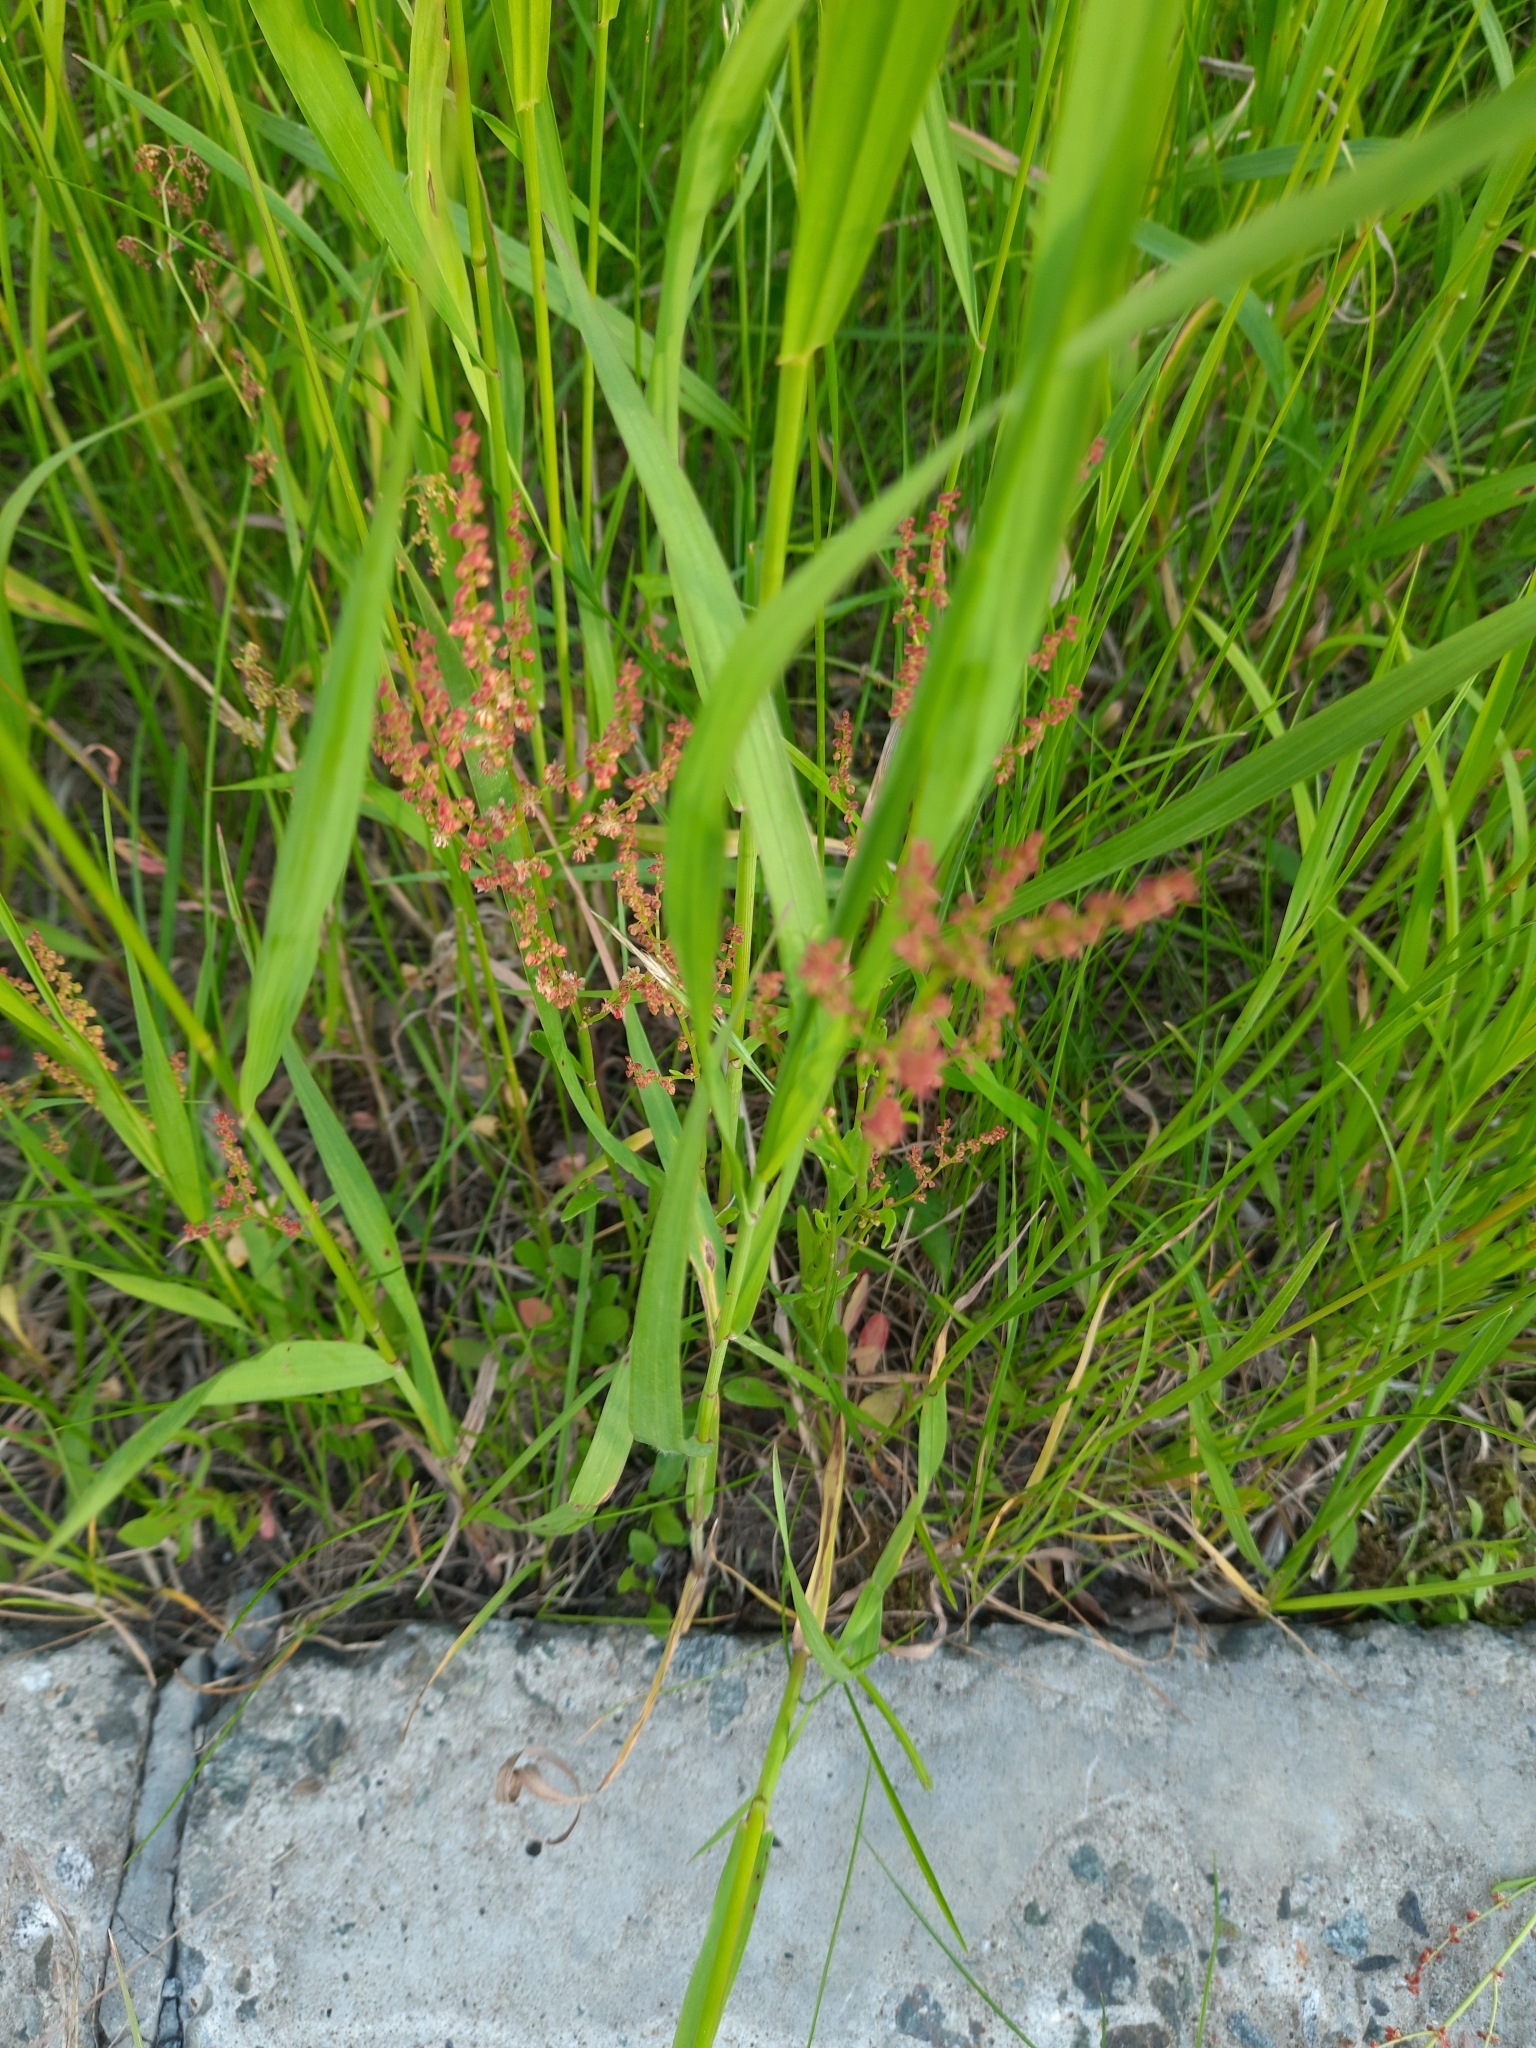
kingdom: Plantae
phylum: Tracheophyta
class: Magnoliopsida
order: Caryophyllales
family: Polygonaceae
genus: Rumex
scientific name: Rumex acetosella
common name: Common sheep sorrel
